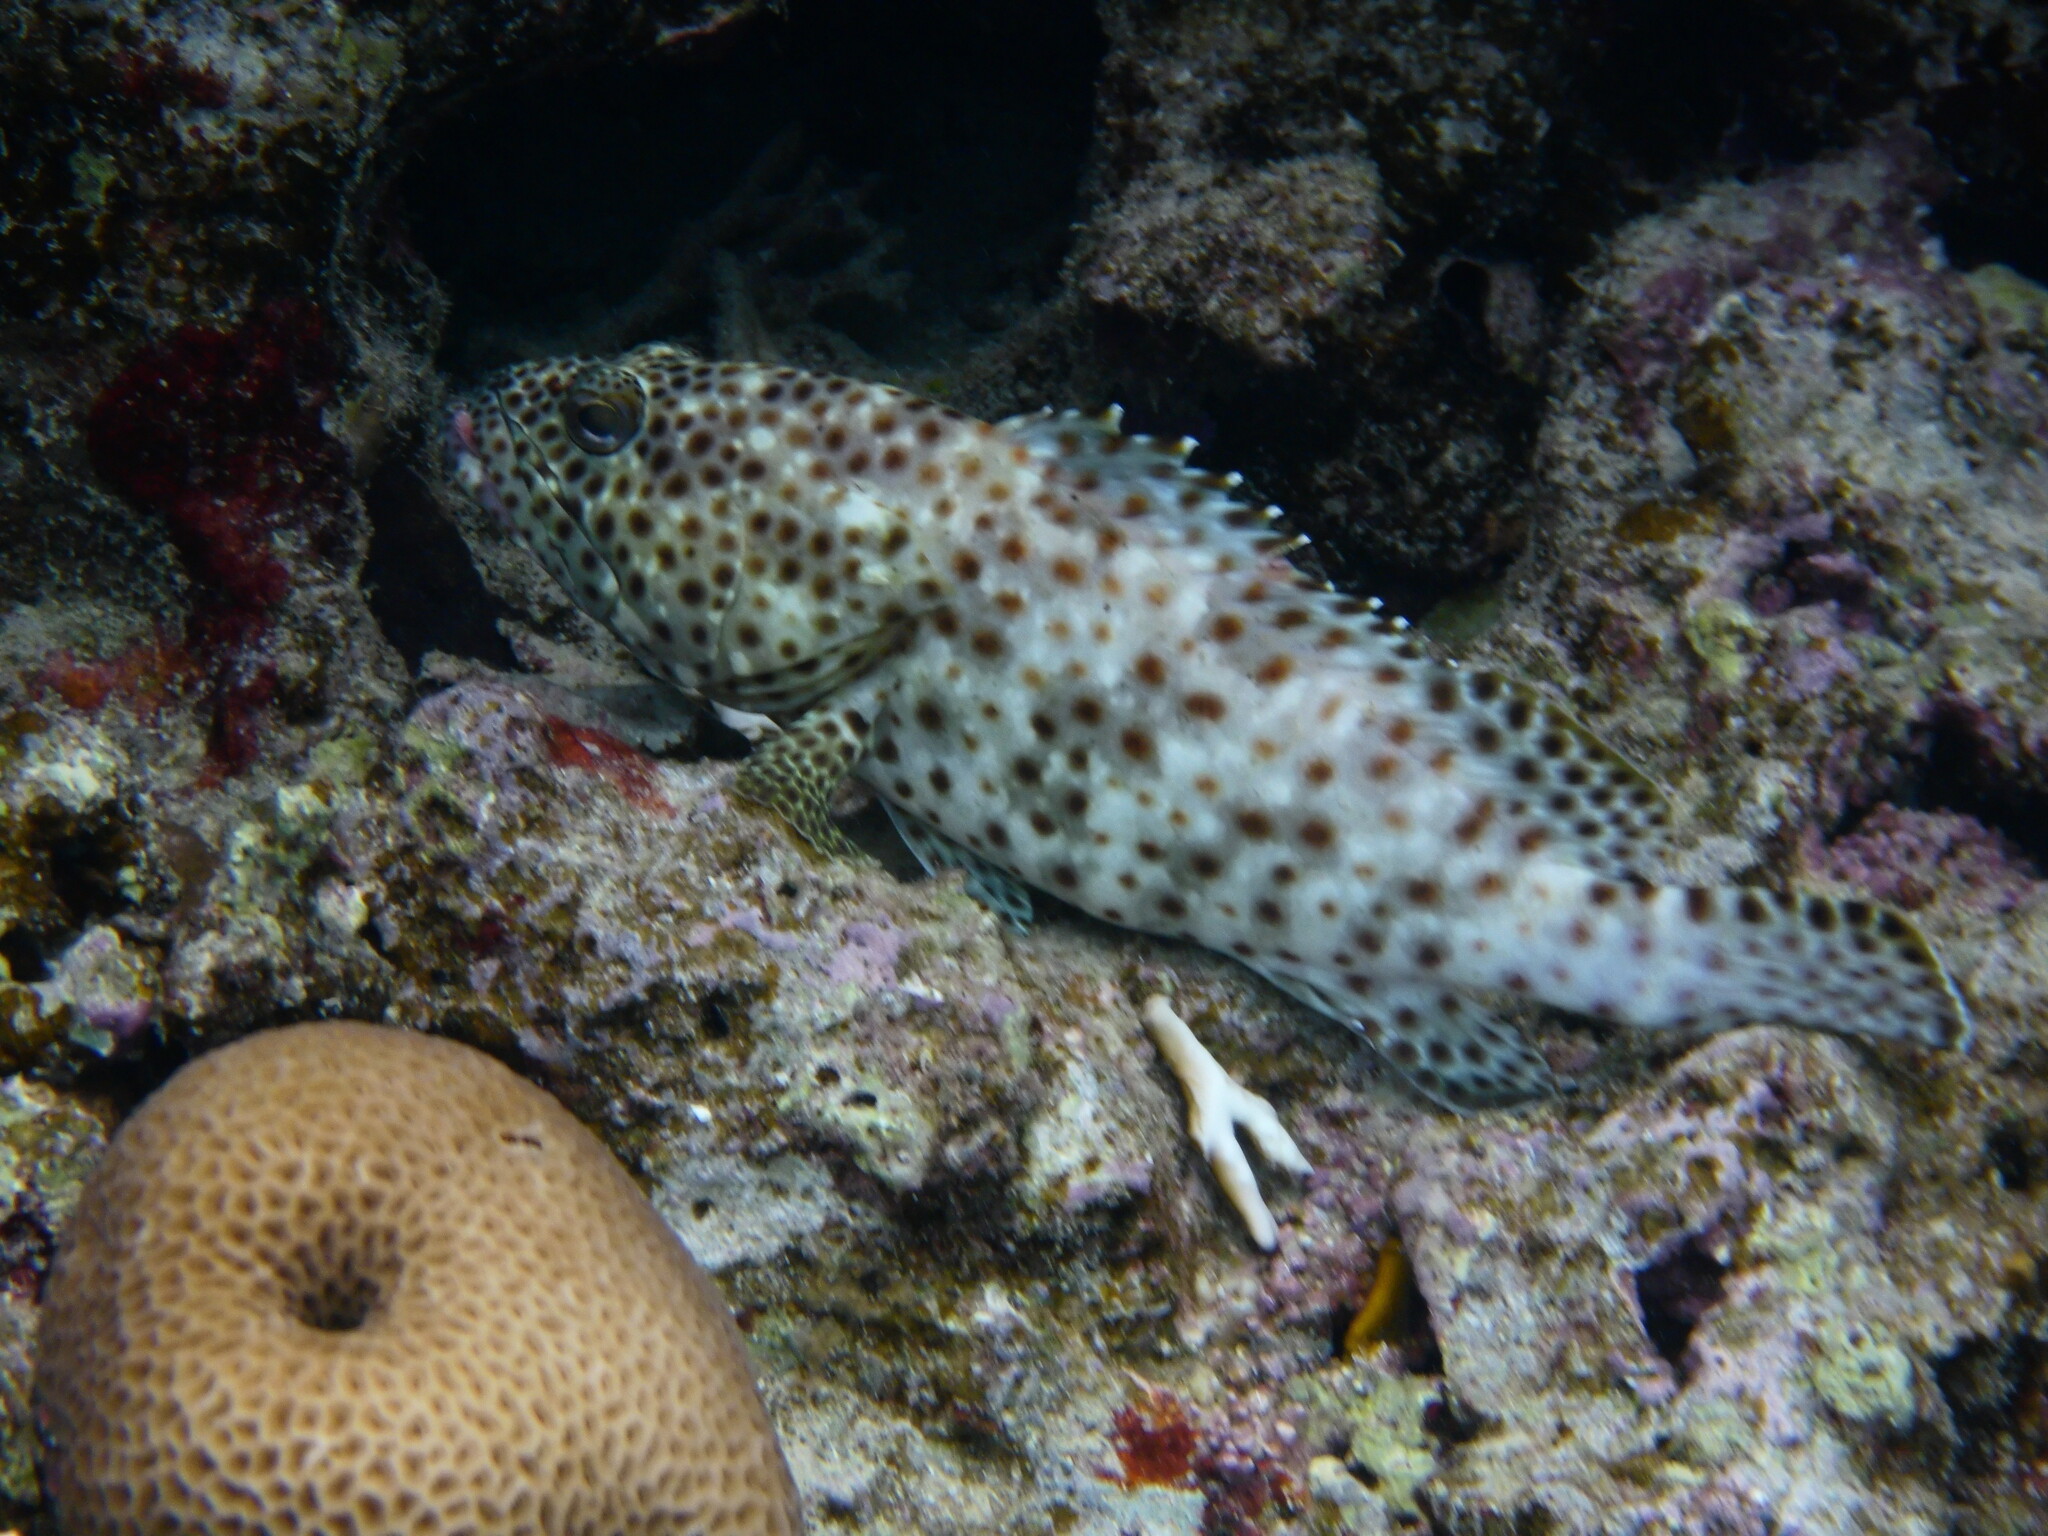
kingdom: Animalia
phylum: Chordata
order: Perciformes
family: Serranidae
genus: Epinephelus
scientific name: Epinephelus tauvina
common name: Greasy grouper
